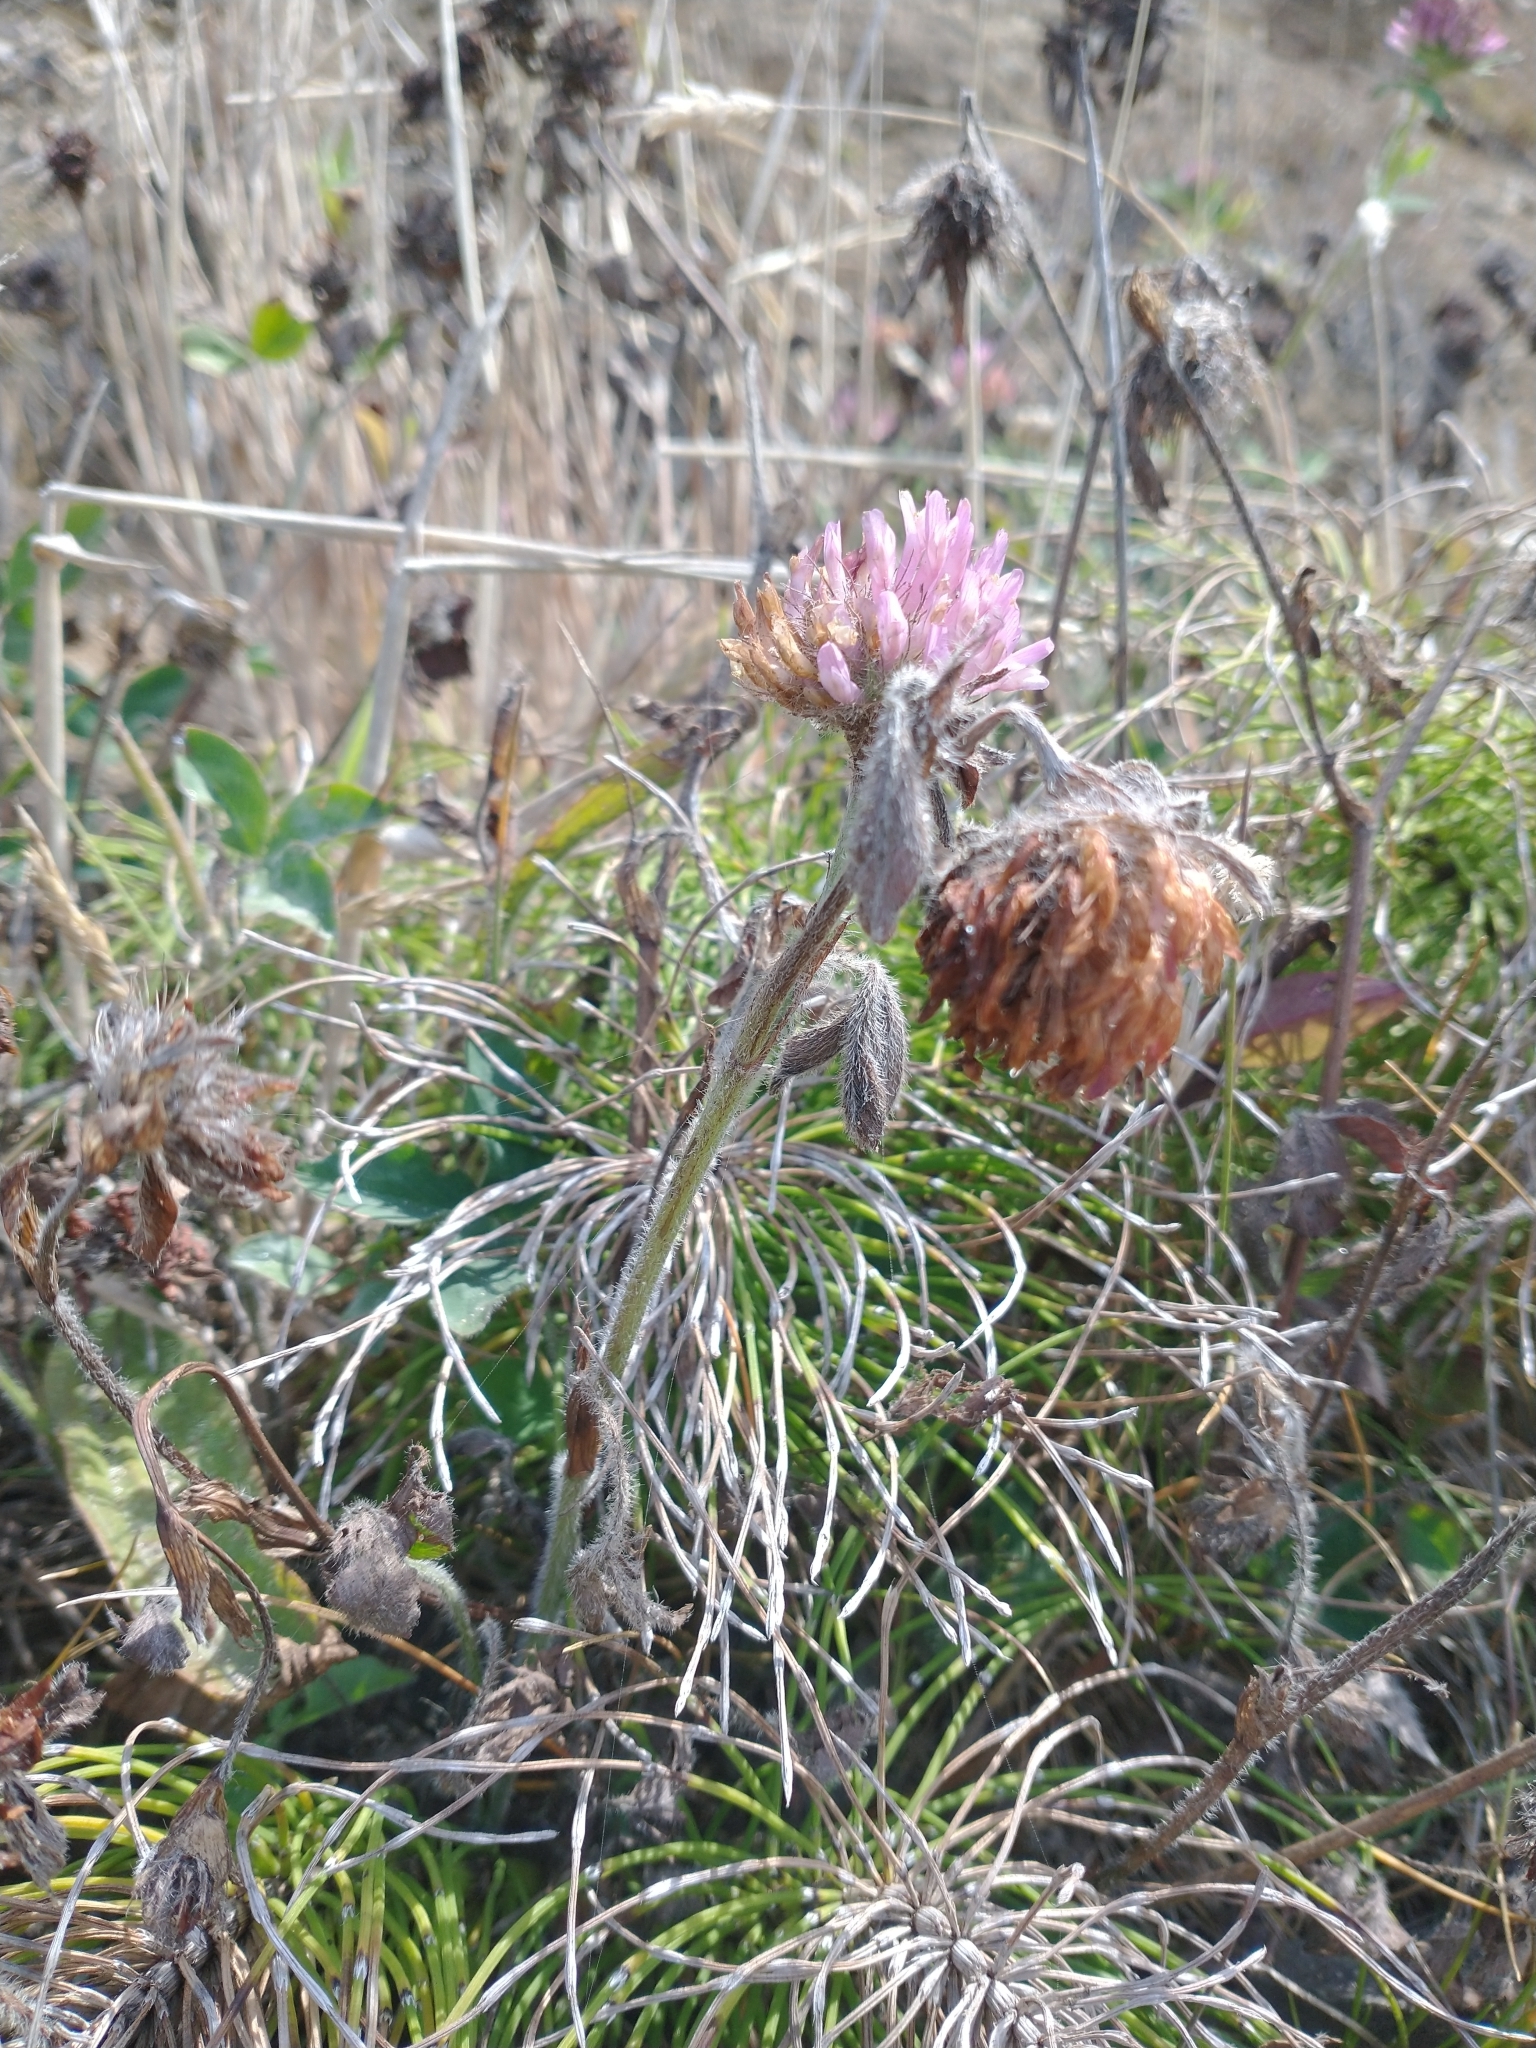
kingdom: Plantae
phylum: Tracheophyta
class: Magnoliopsida
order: Fabales
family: Fabaceae
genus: Trifolium
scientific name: Trifolium pratense
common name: Red clover
